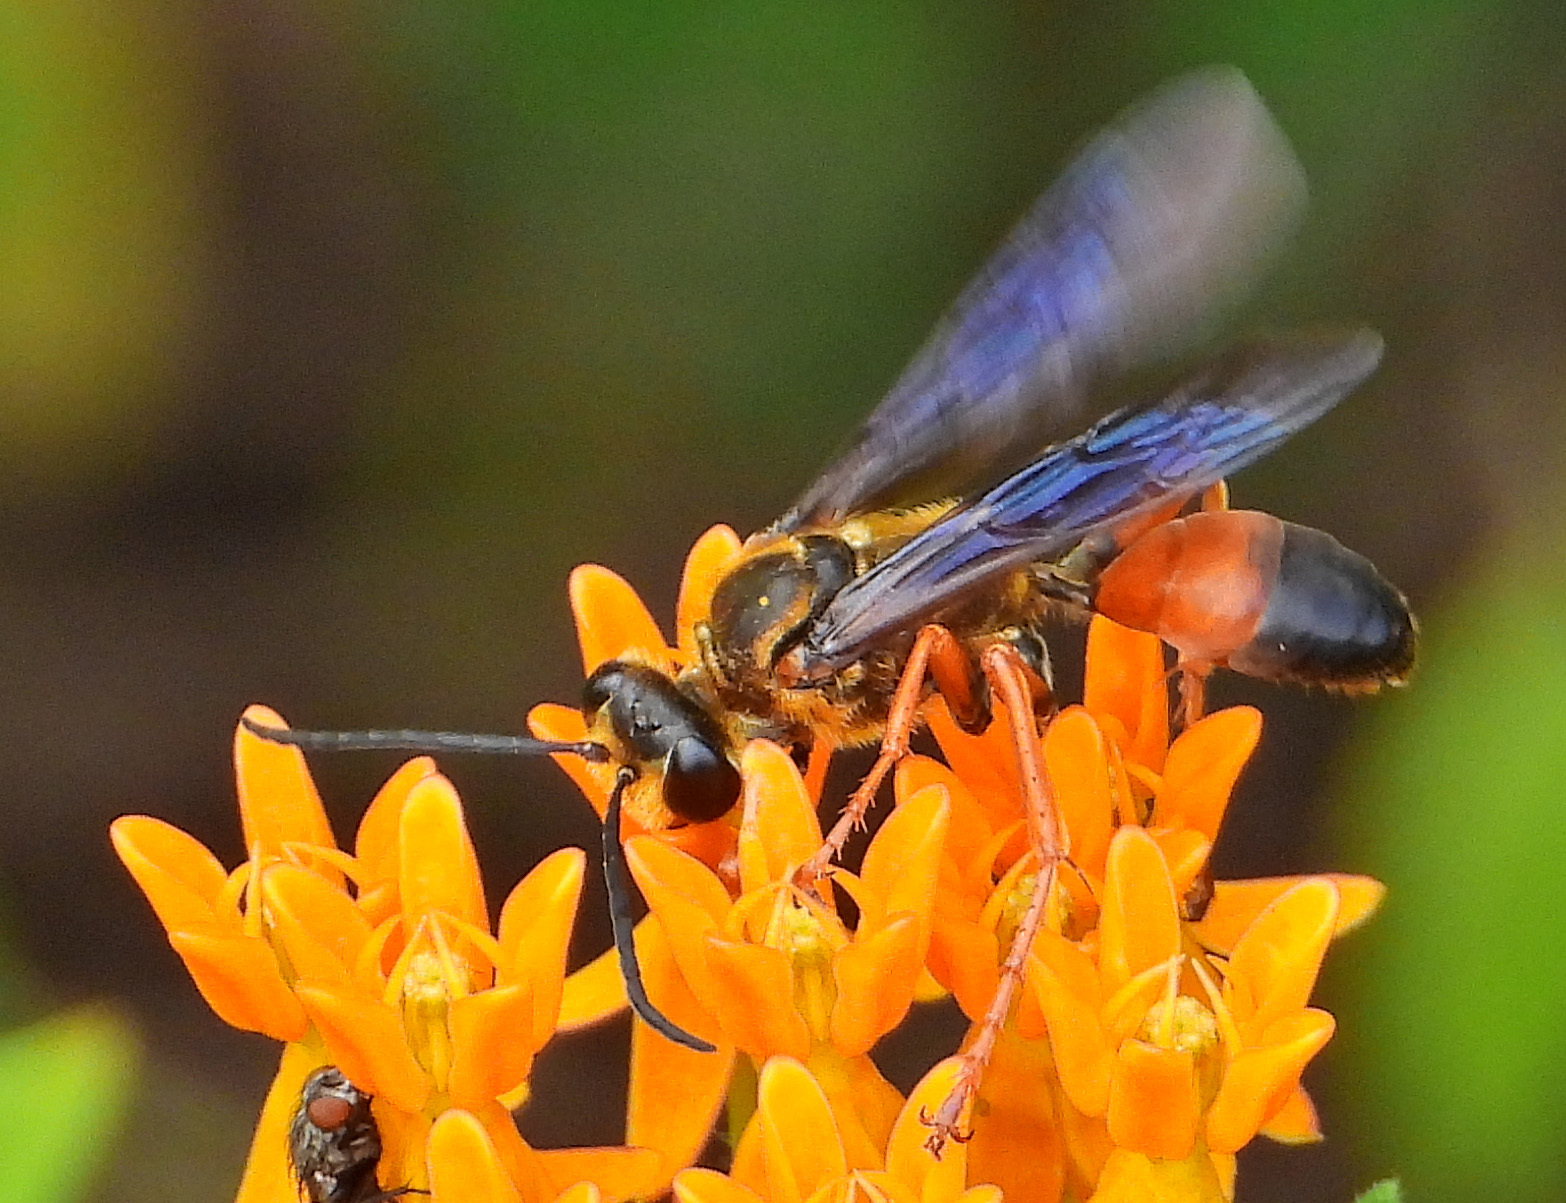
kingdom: Animalia
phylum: Arthropoda
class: Insecta
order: Hymenoptera
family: Sphecidae
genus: Sphex
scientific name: Sphex ichneumoneus
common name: Great golden digger wasp
